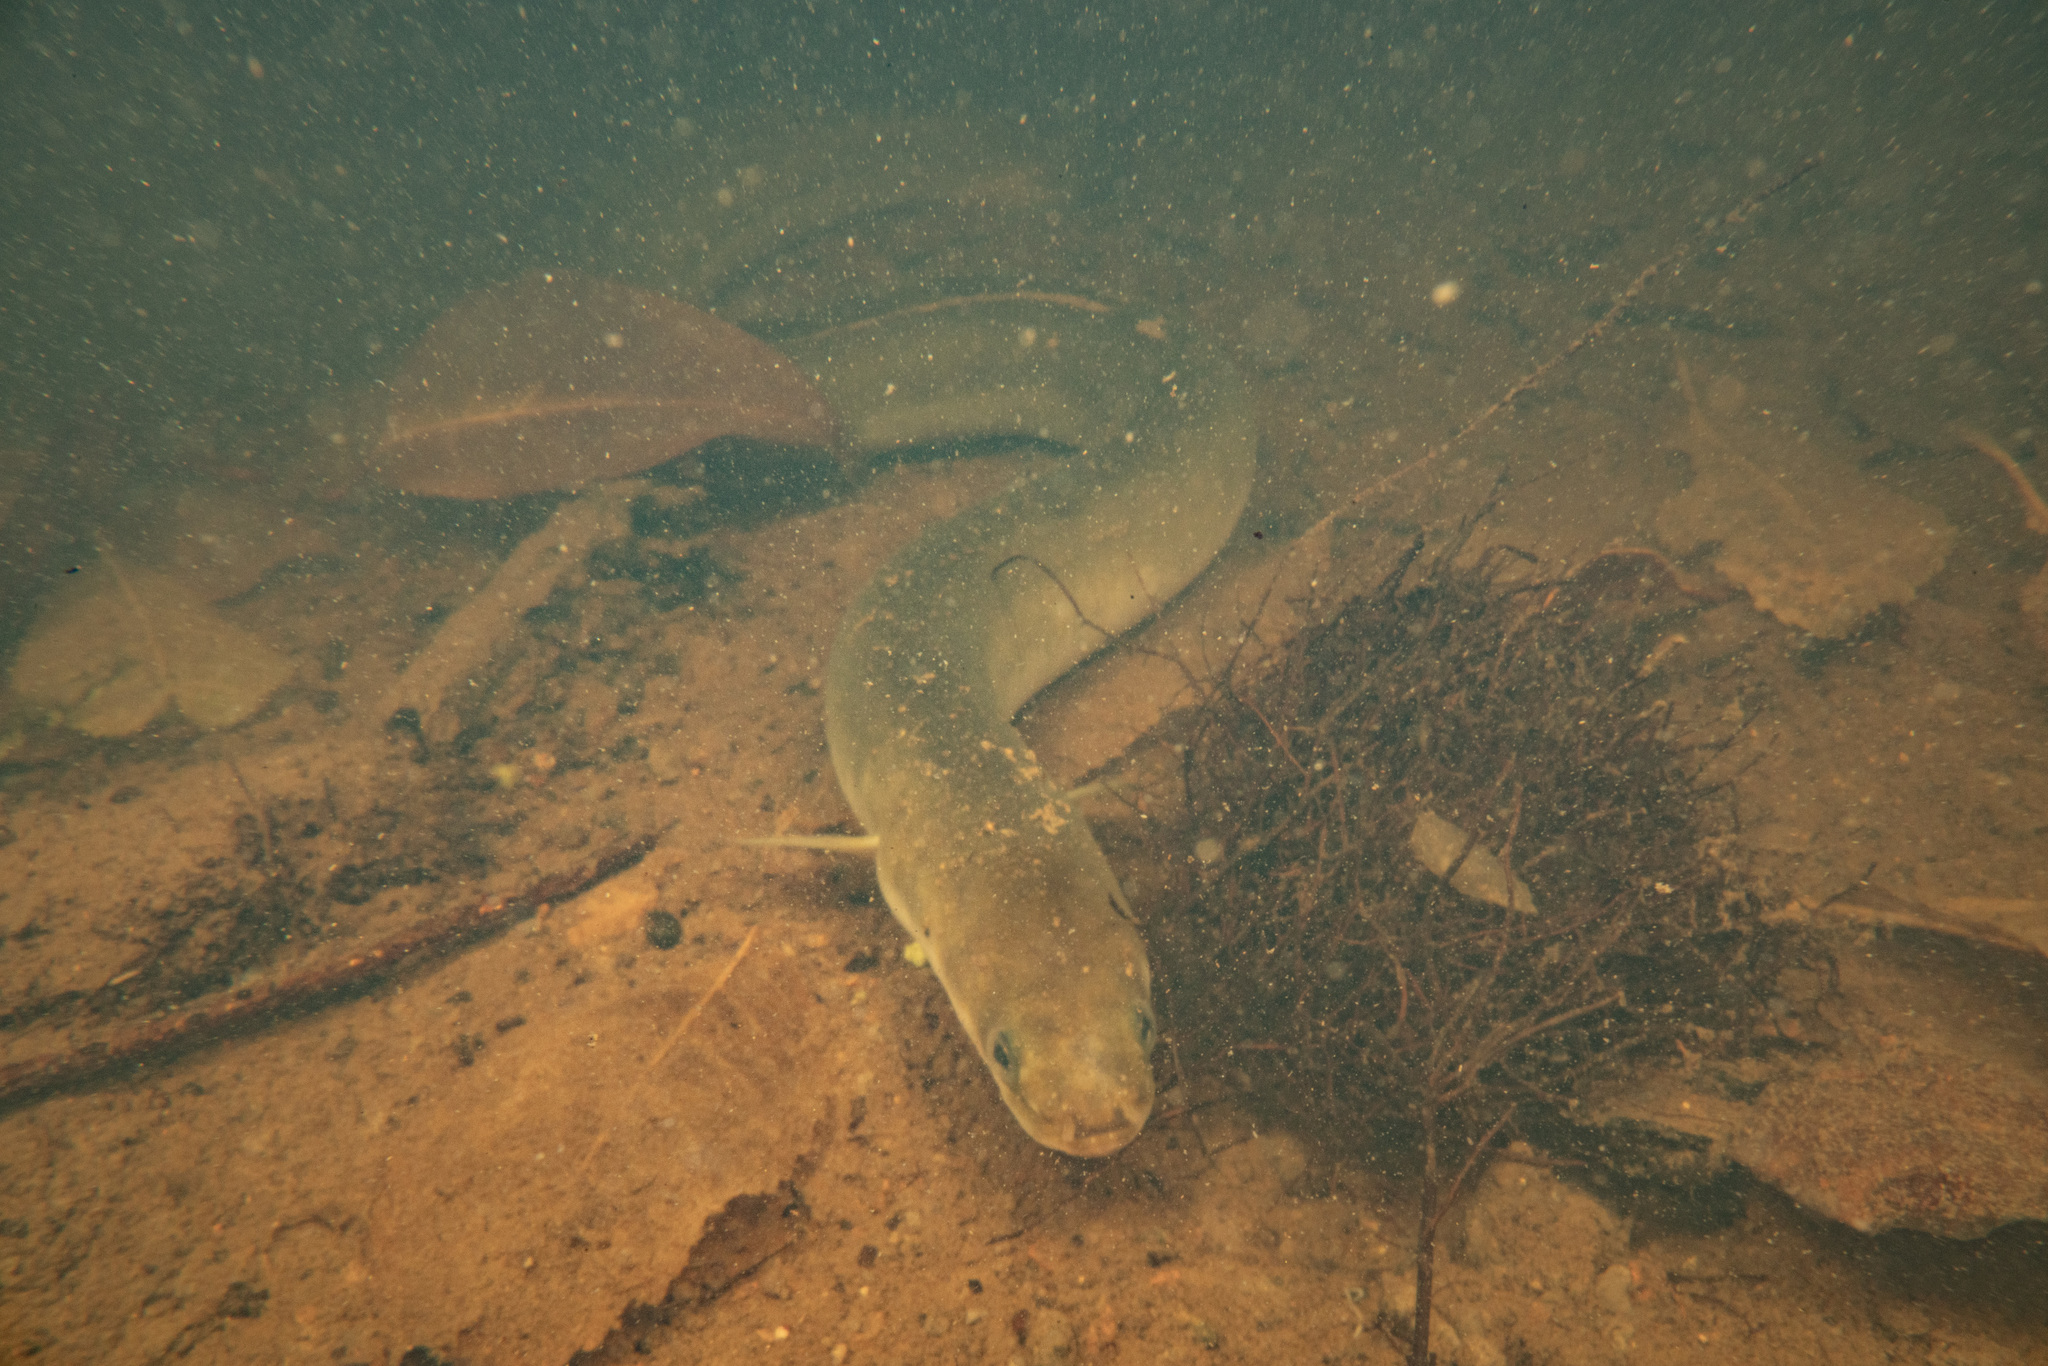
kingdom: Animalia
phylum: Chordata
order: Anguilliformes
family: Anguillidae
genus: Anguilla
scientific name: Anguilla australis
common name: Shortfin eel
